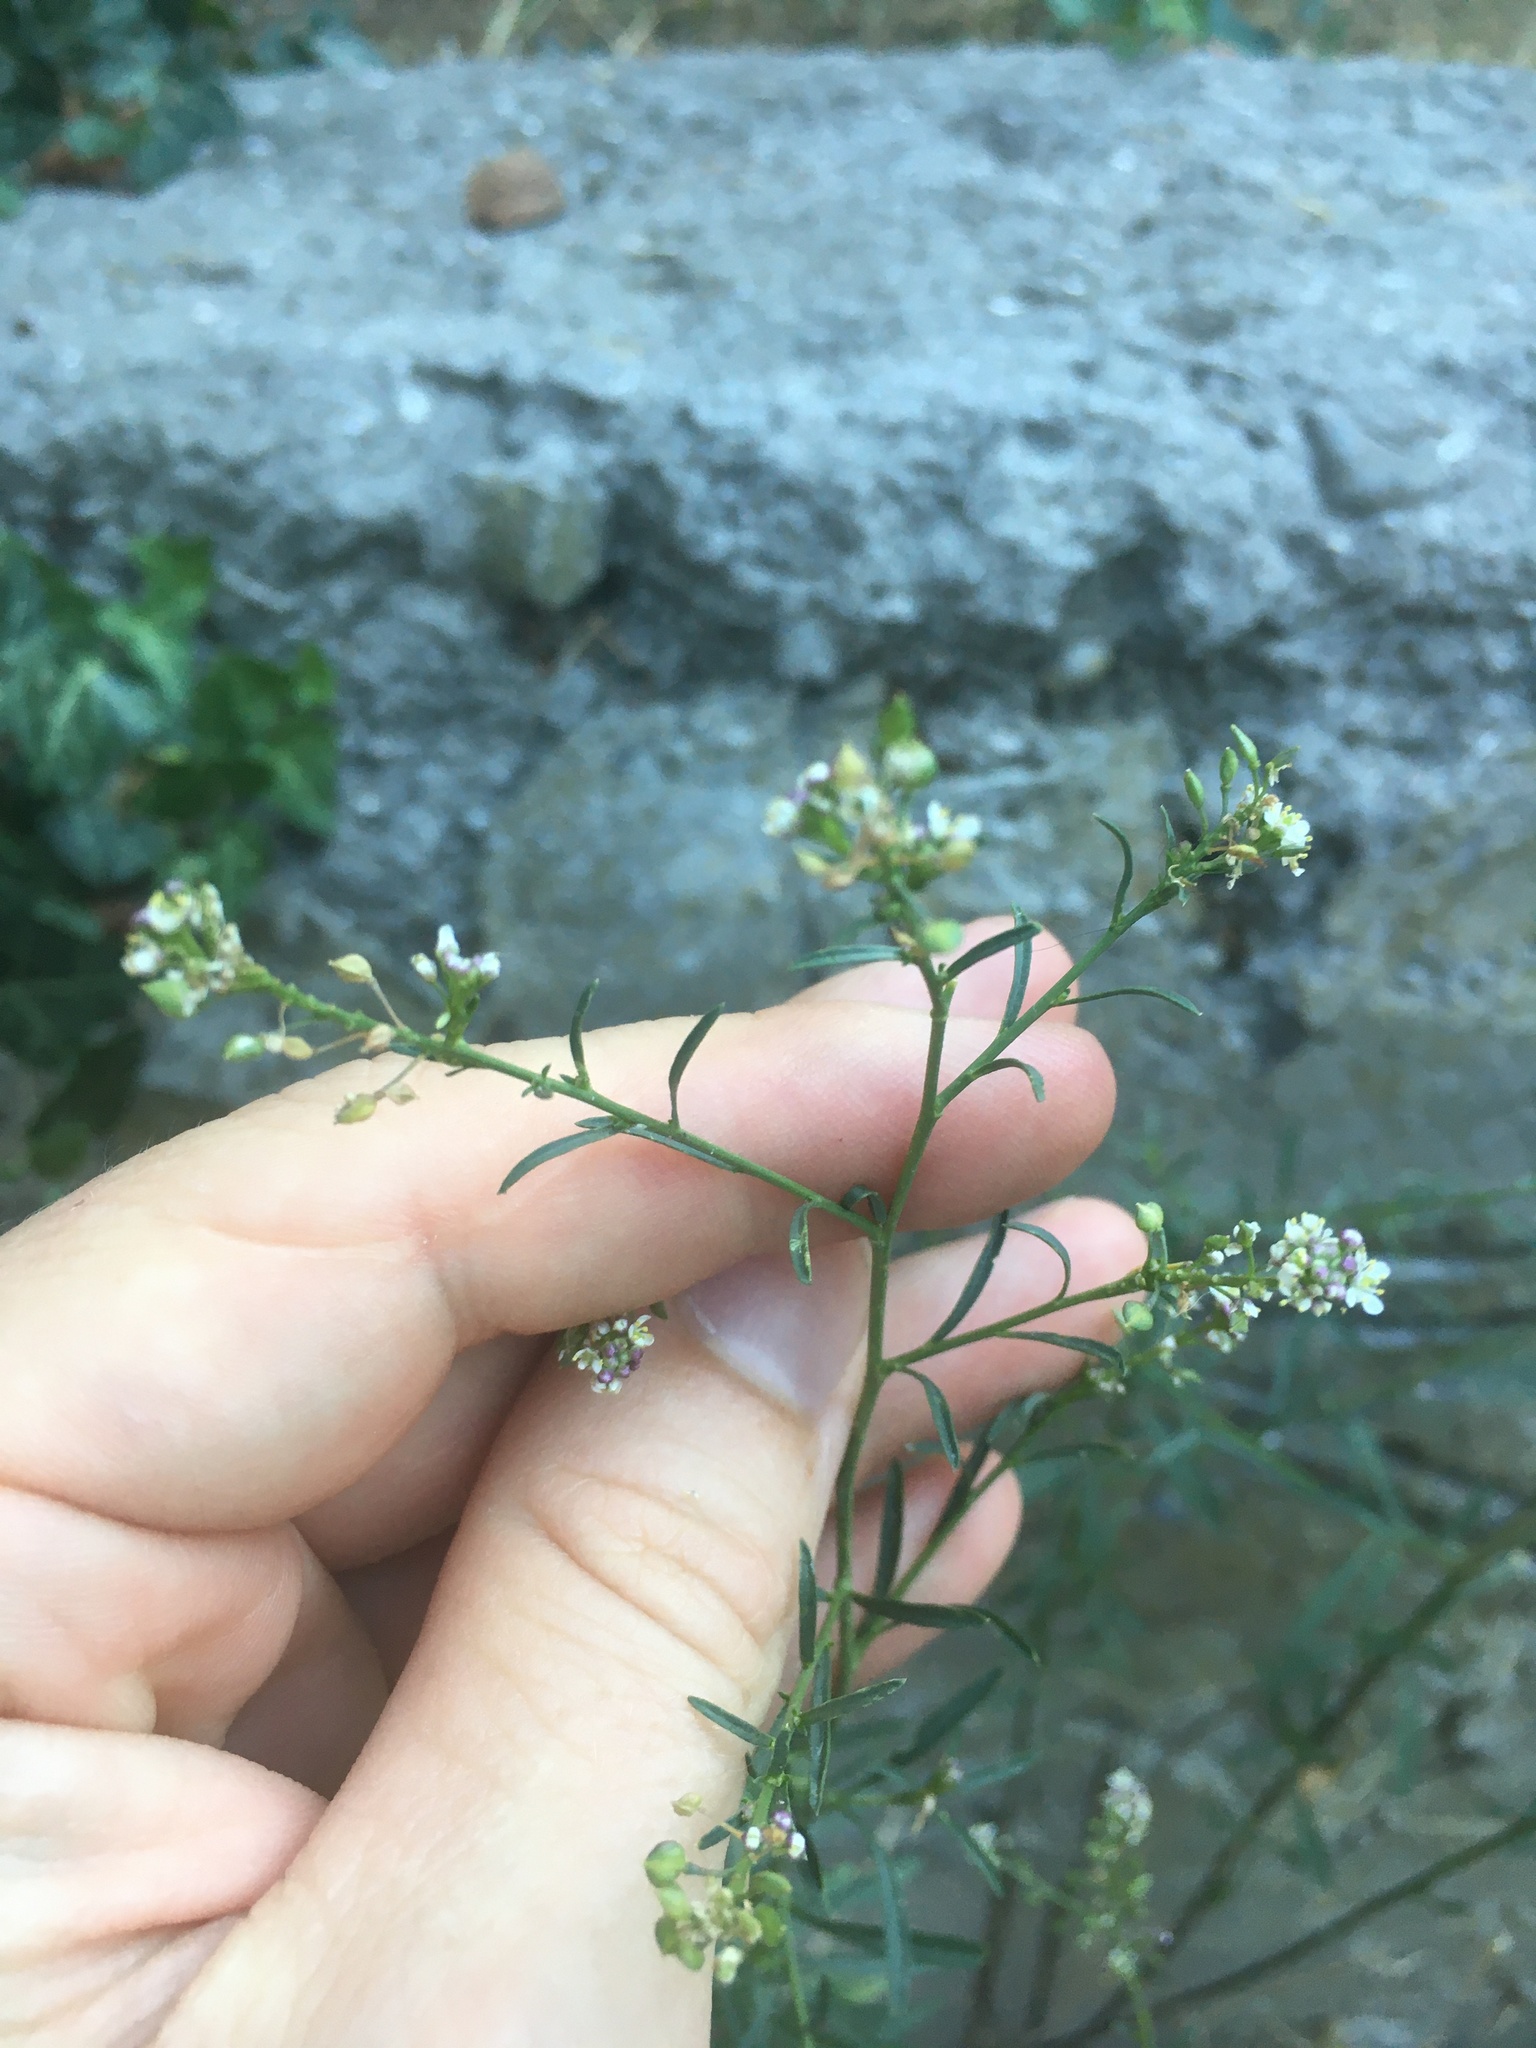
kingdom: Plantae
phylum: Tracheophyta
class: Magnoliopsida
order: Brassicales
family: Brassicaceae
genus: Lepidium
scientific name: Lepidium graminifolium
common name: Tall pepperwort
